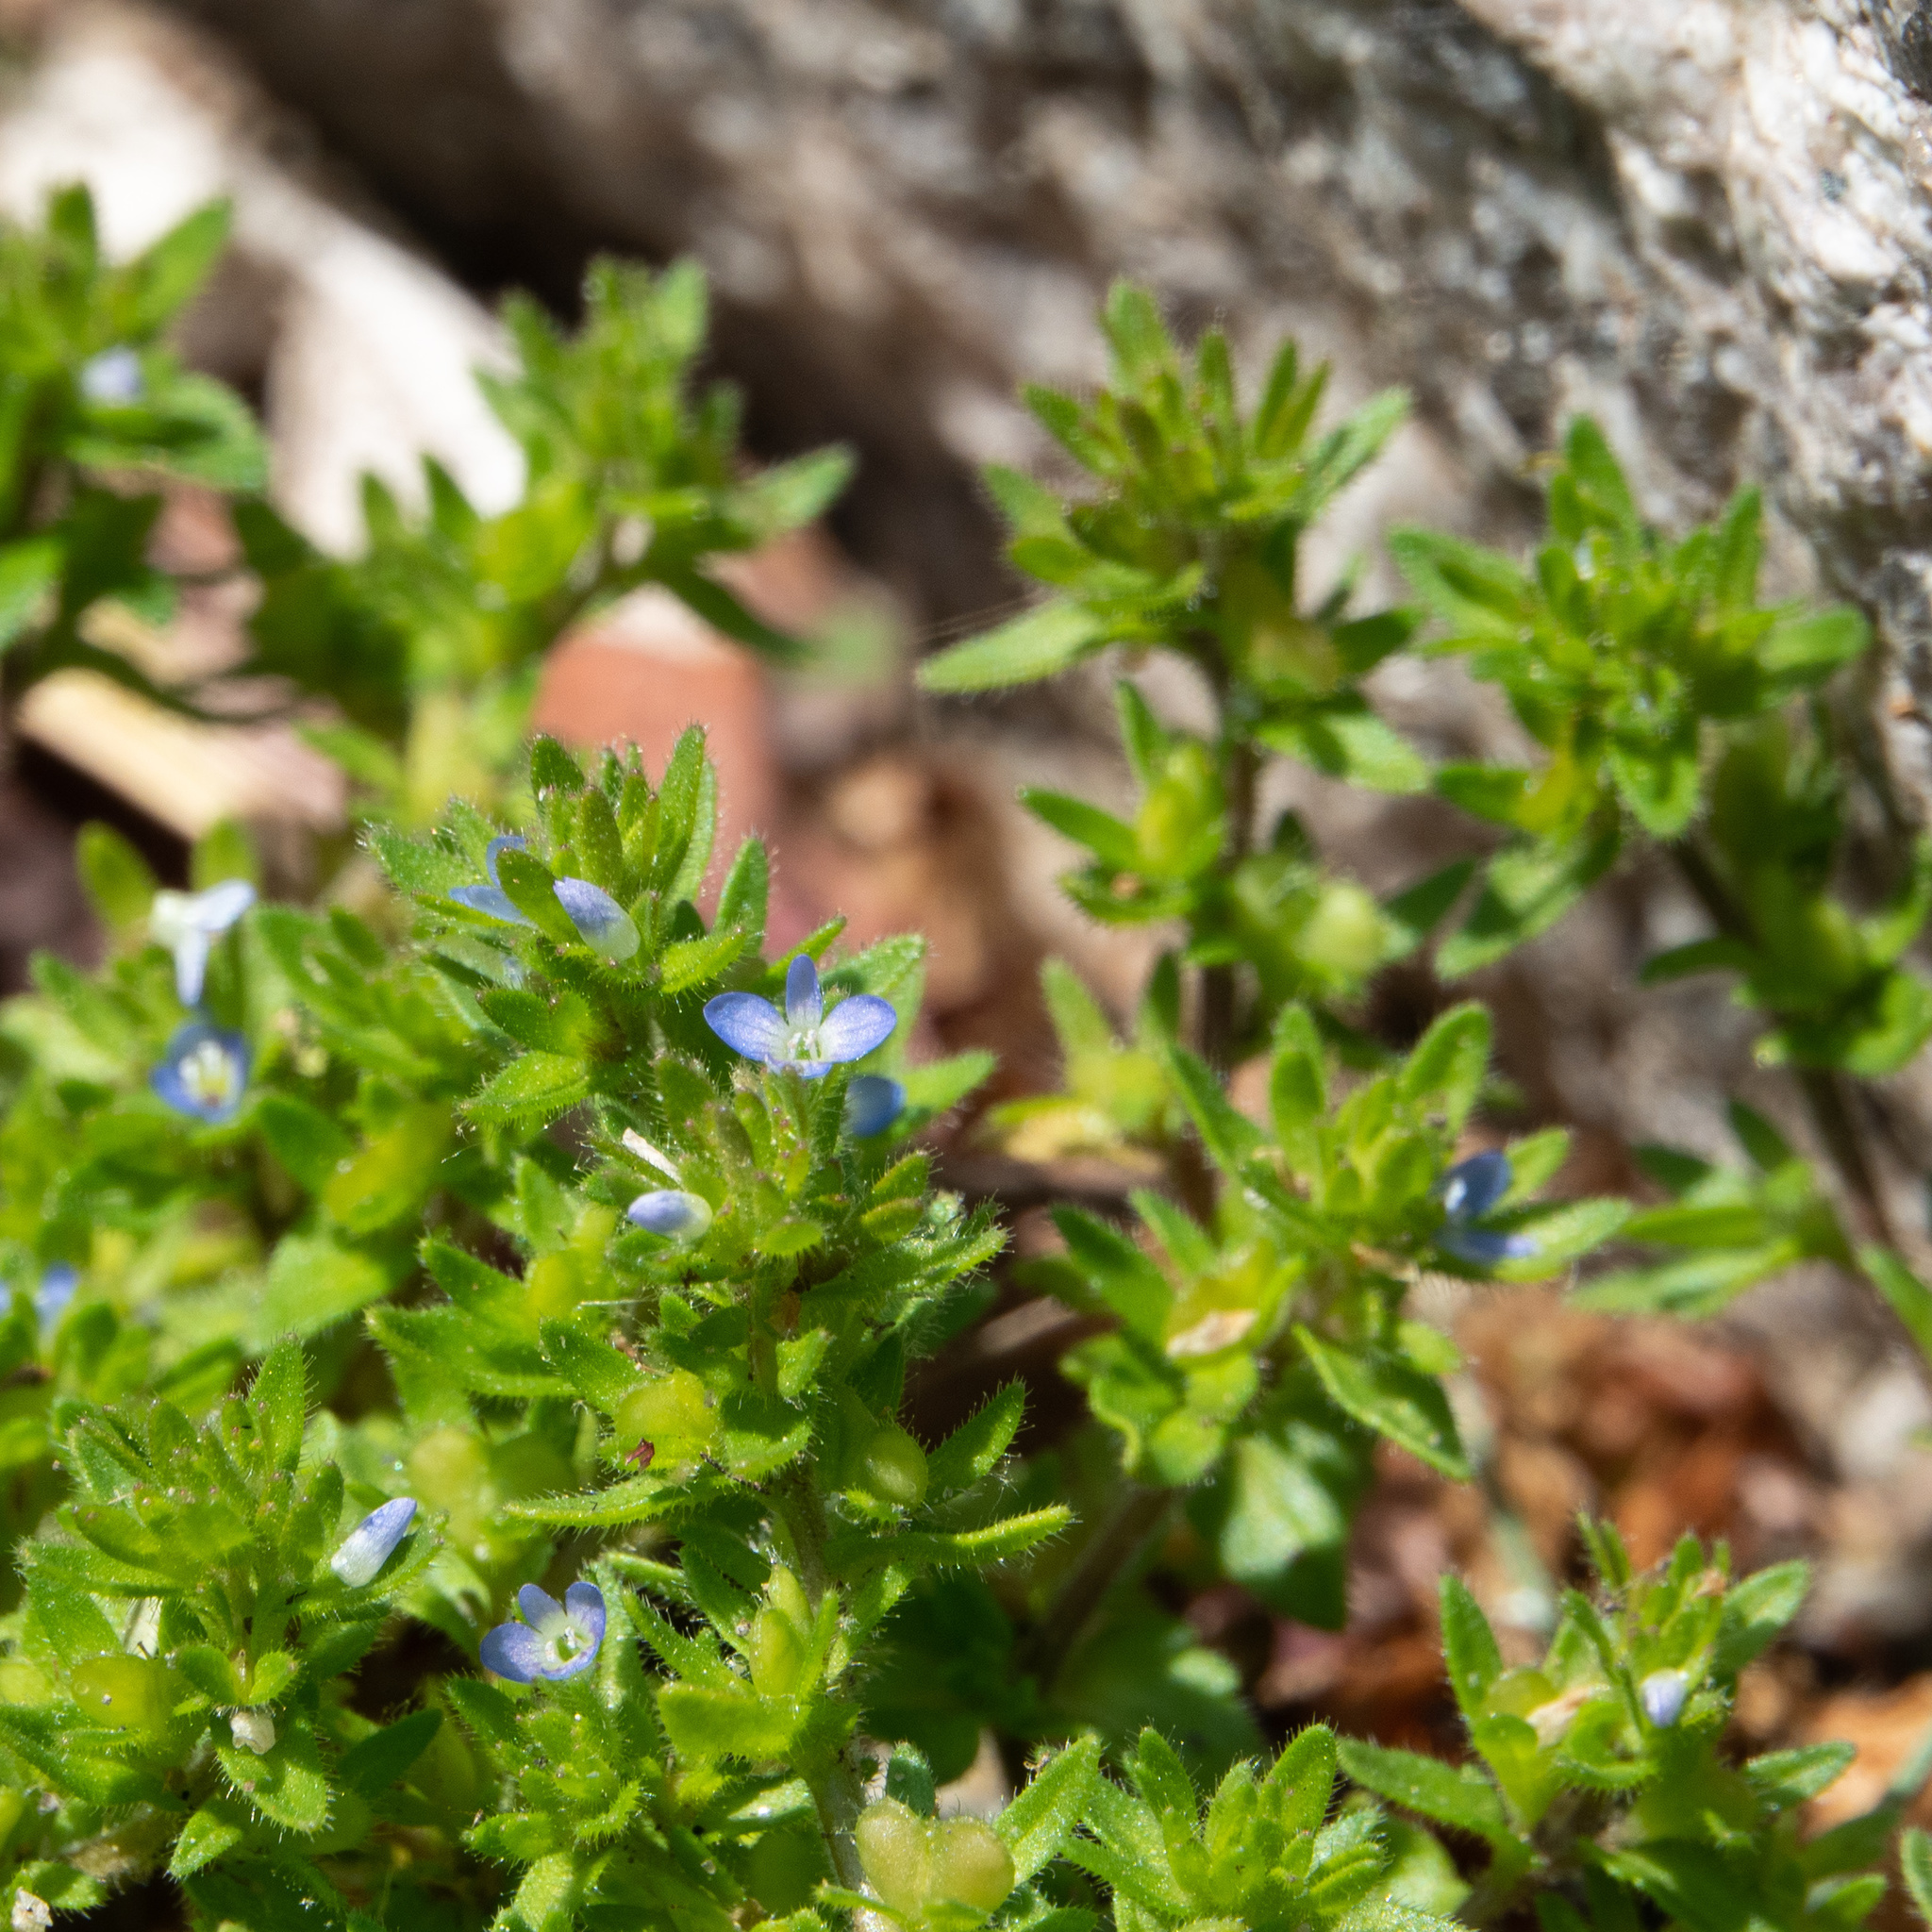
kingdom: Plantae
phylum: Tracheophyta
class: Magnoliopsida
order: Lamiales
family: Plantaginaceae
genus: Veronica
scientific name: Veronica arvensis
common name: Corn speedwell
